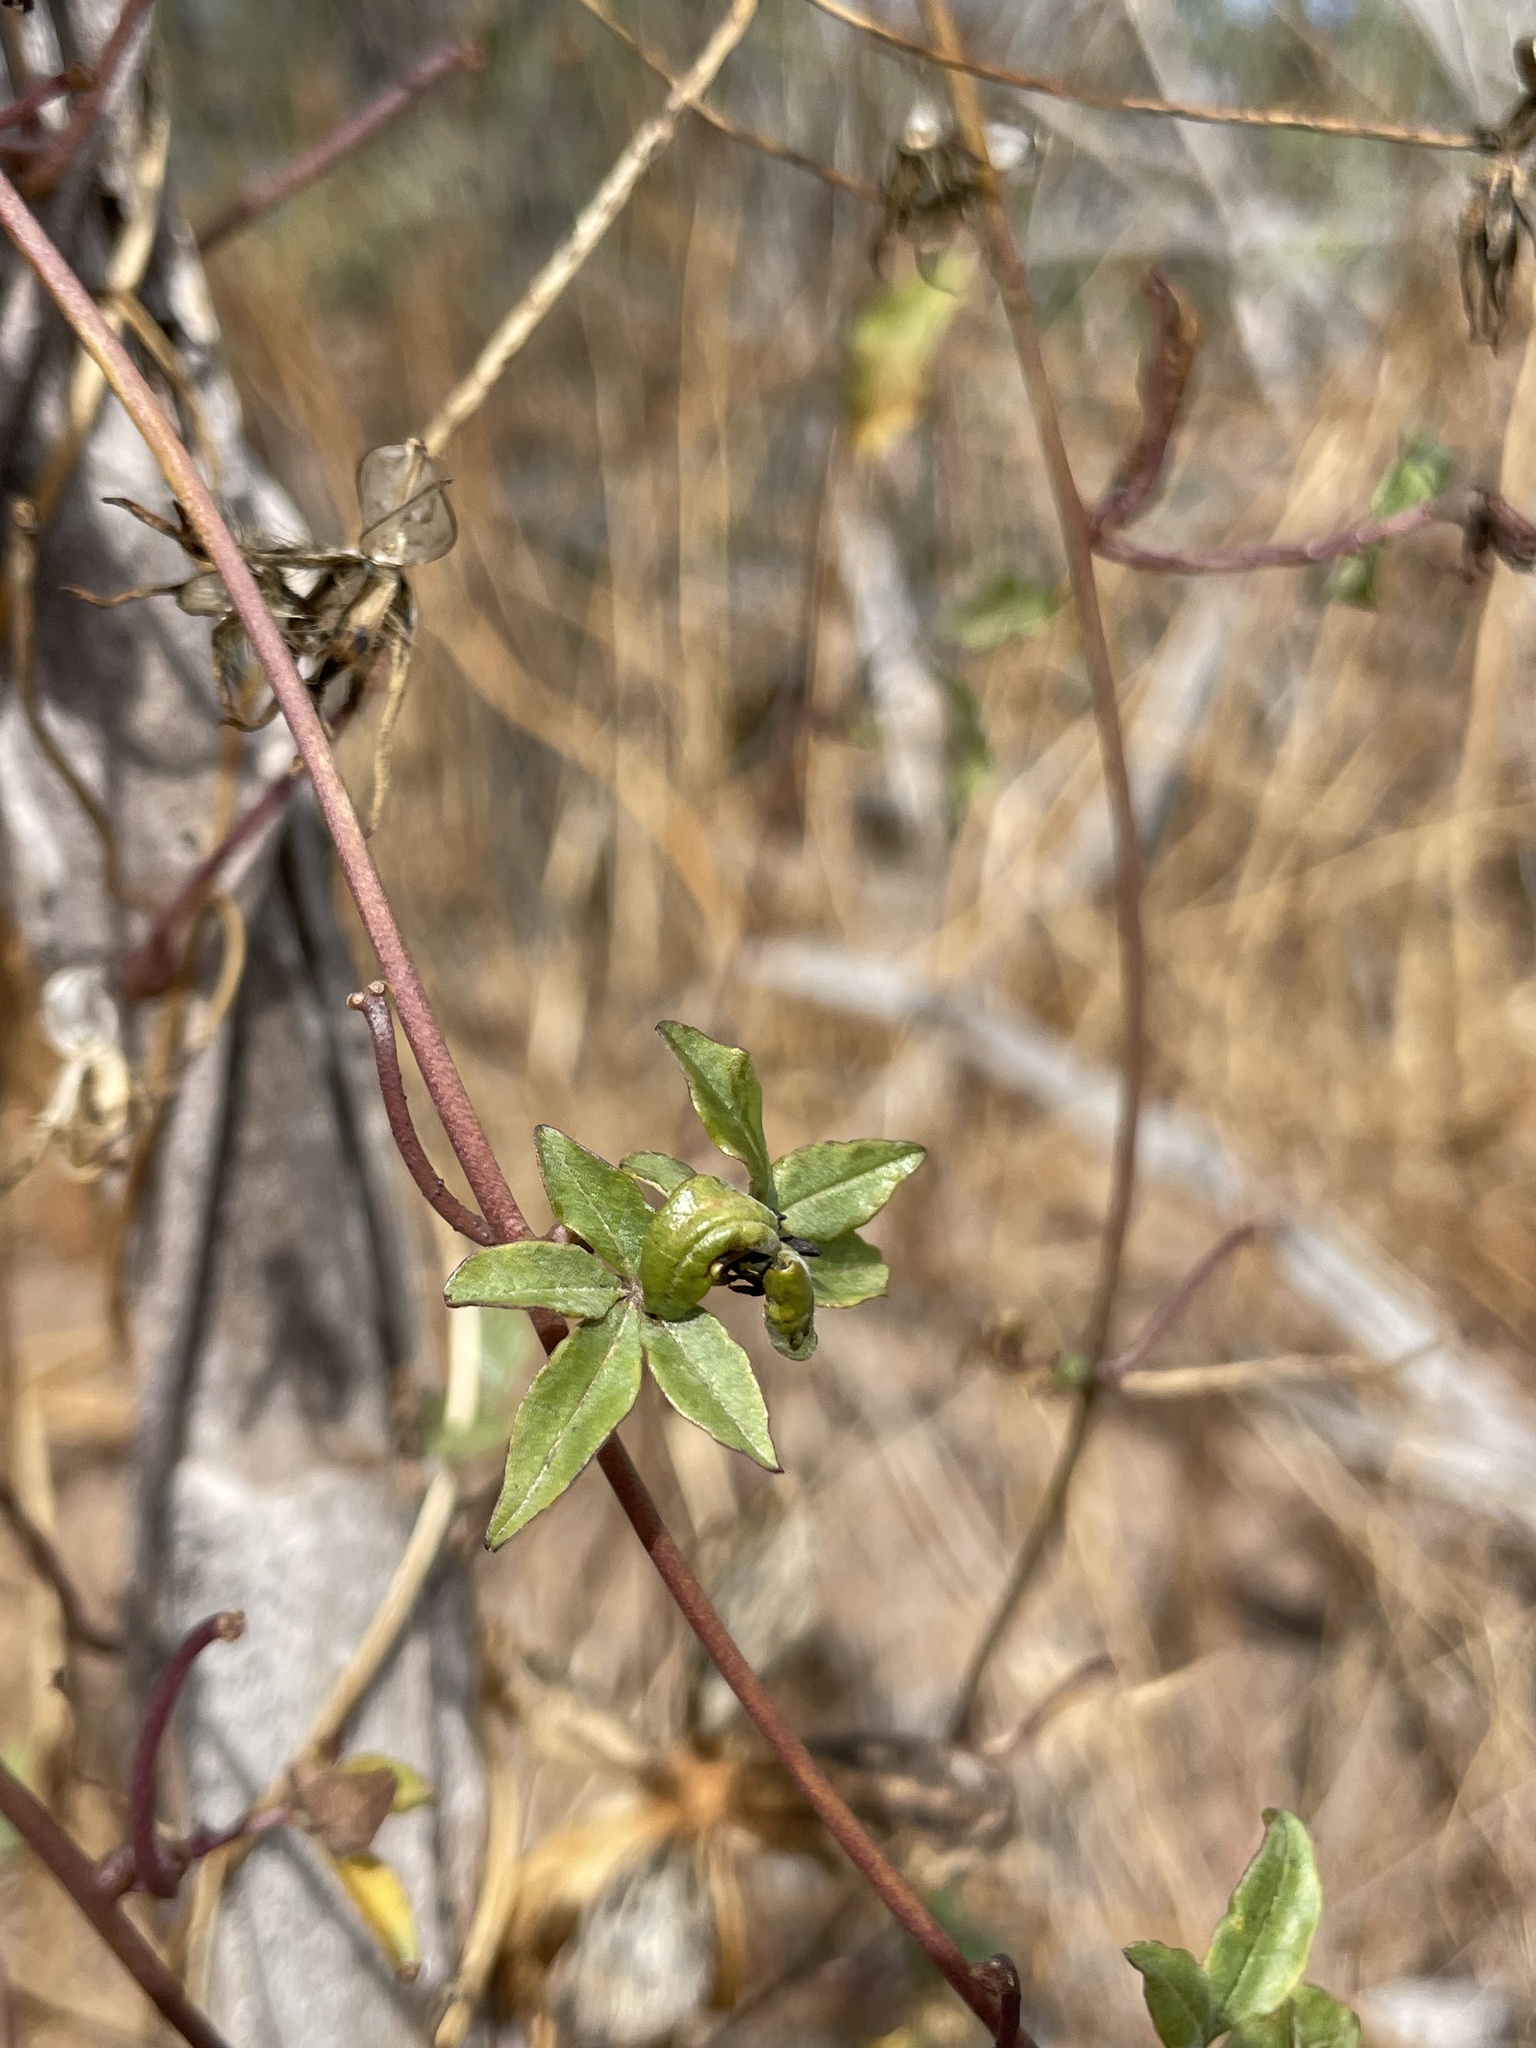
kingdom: Plantae
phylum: Tracheophyta
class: Magnoliopsida
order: Solanales
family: Convolvulaceae
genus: Distimake
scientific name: Distimake aureus
